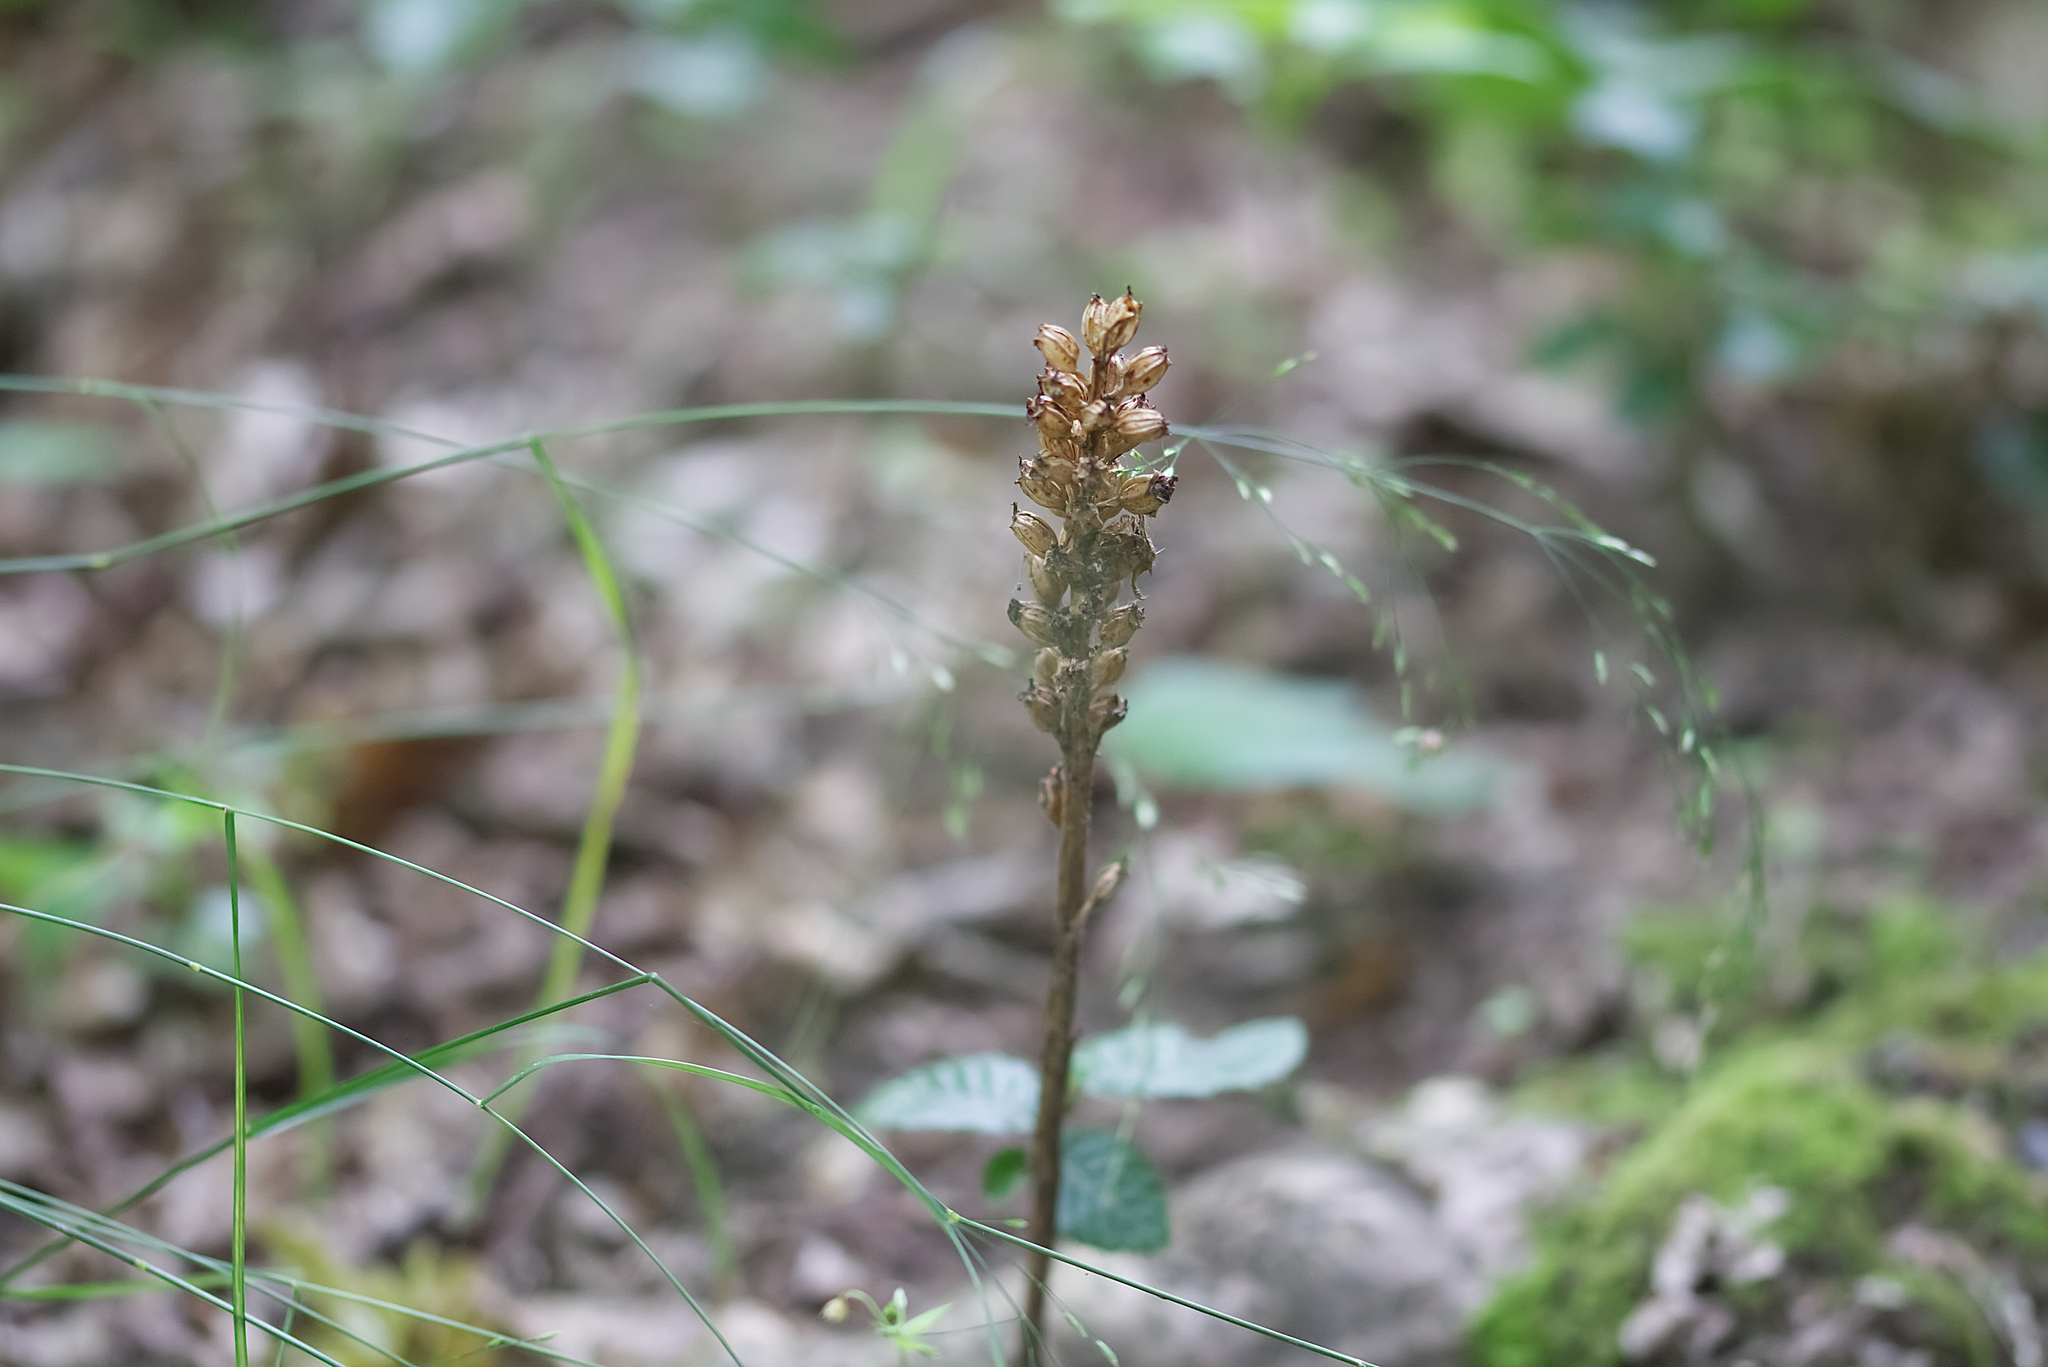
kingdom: Plantae
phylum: Tracheophyta
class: Liliopsida
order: Asparagales
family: Orchidaceae
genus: Neottia
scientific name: Neottia nidus-avis
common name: Bird's-nest orchid
